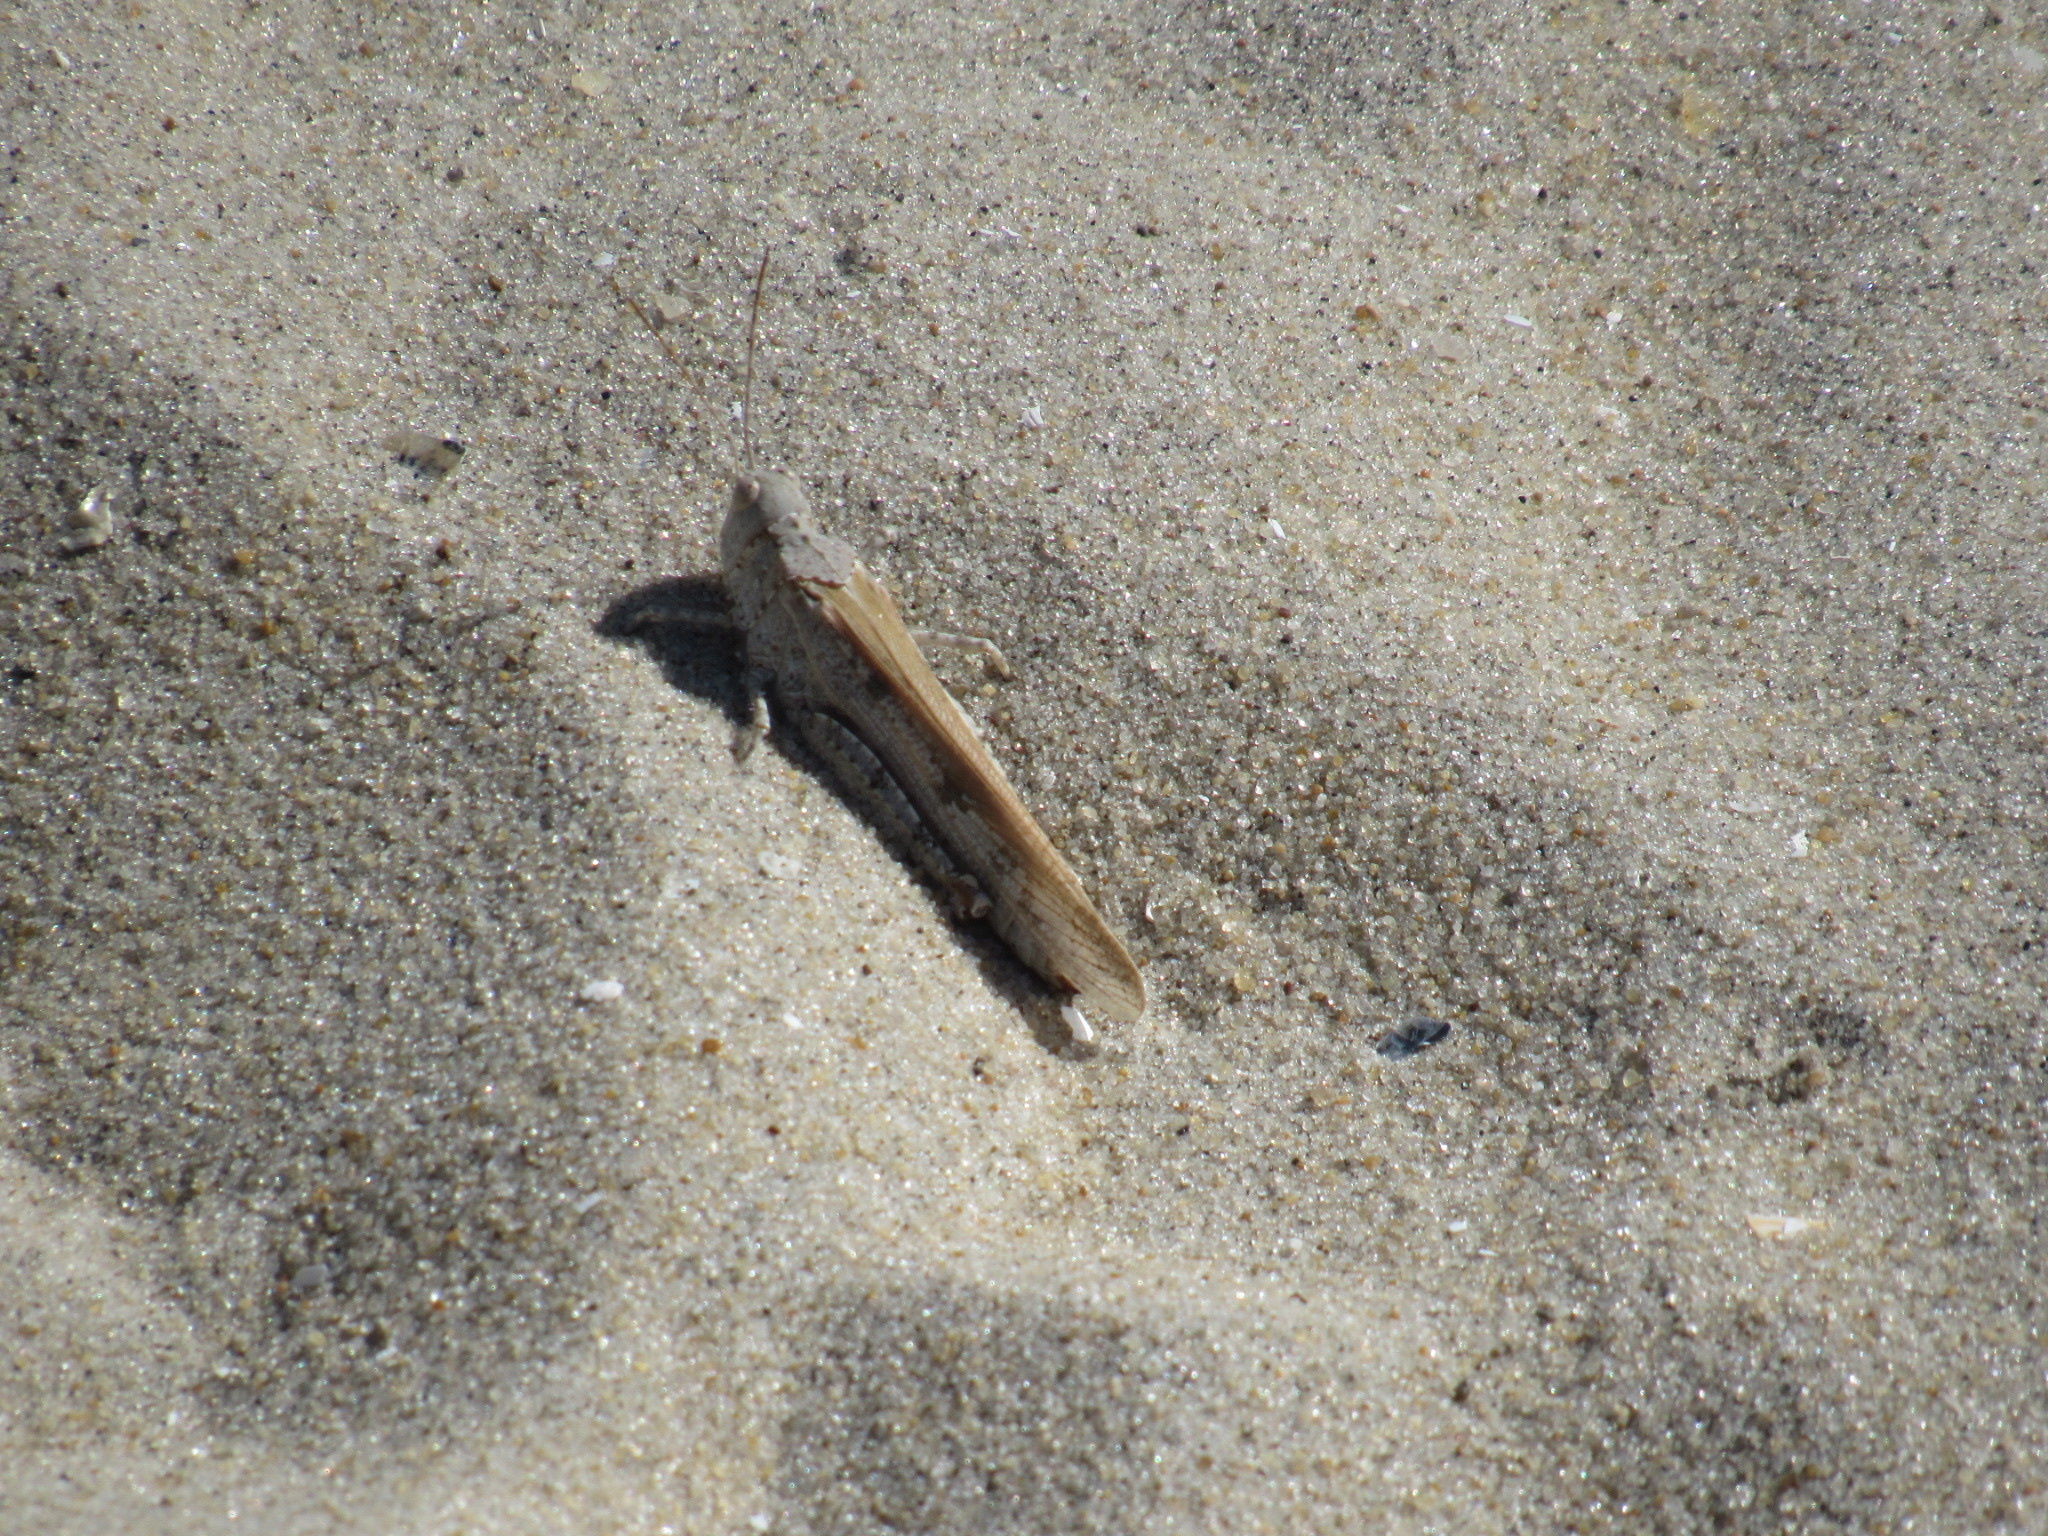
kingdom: Animalia
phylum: Arthropoda
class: Insecta
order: Orthoptera
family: Acrididae
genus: Trimerotropis
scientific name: Trimerotropis maritima
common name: Seaside locust
